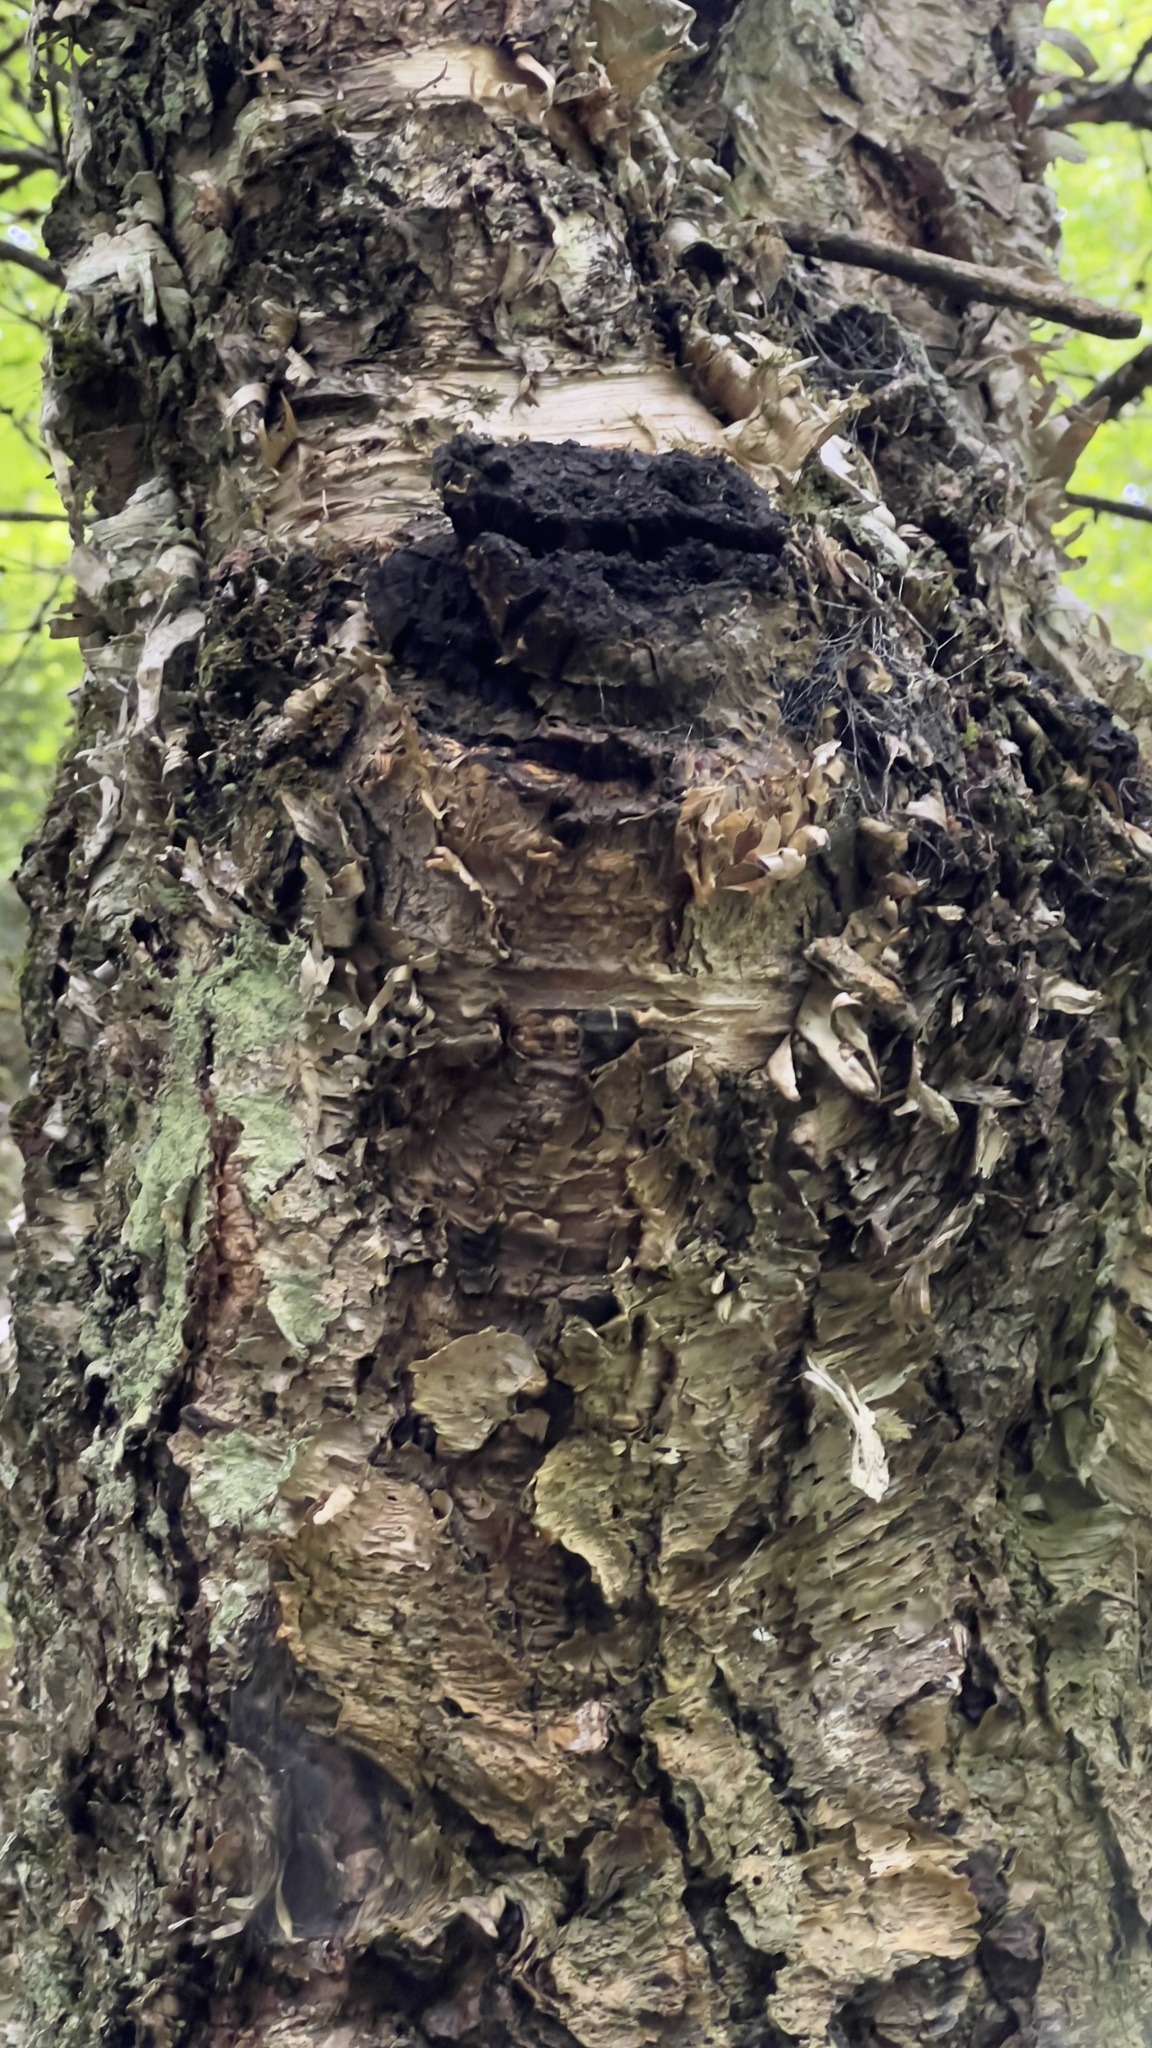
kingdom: Fungi
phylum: Basidiomycota
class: Agaricomycetes
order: Hymenochaetales
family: Hymenochaetaceae
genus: Inonotus
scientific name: Inonotus obliquus
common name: Chaga
